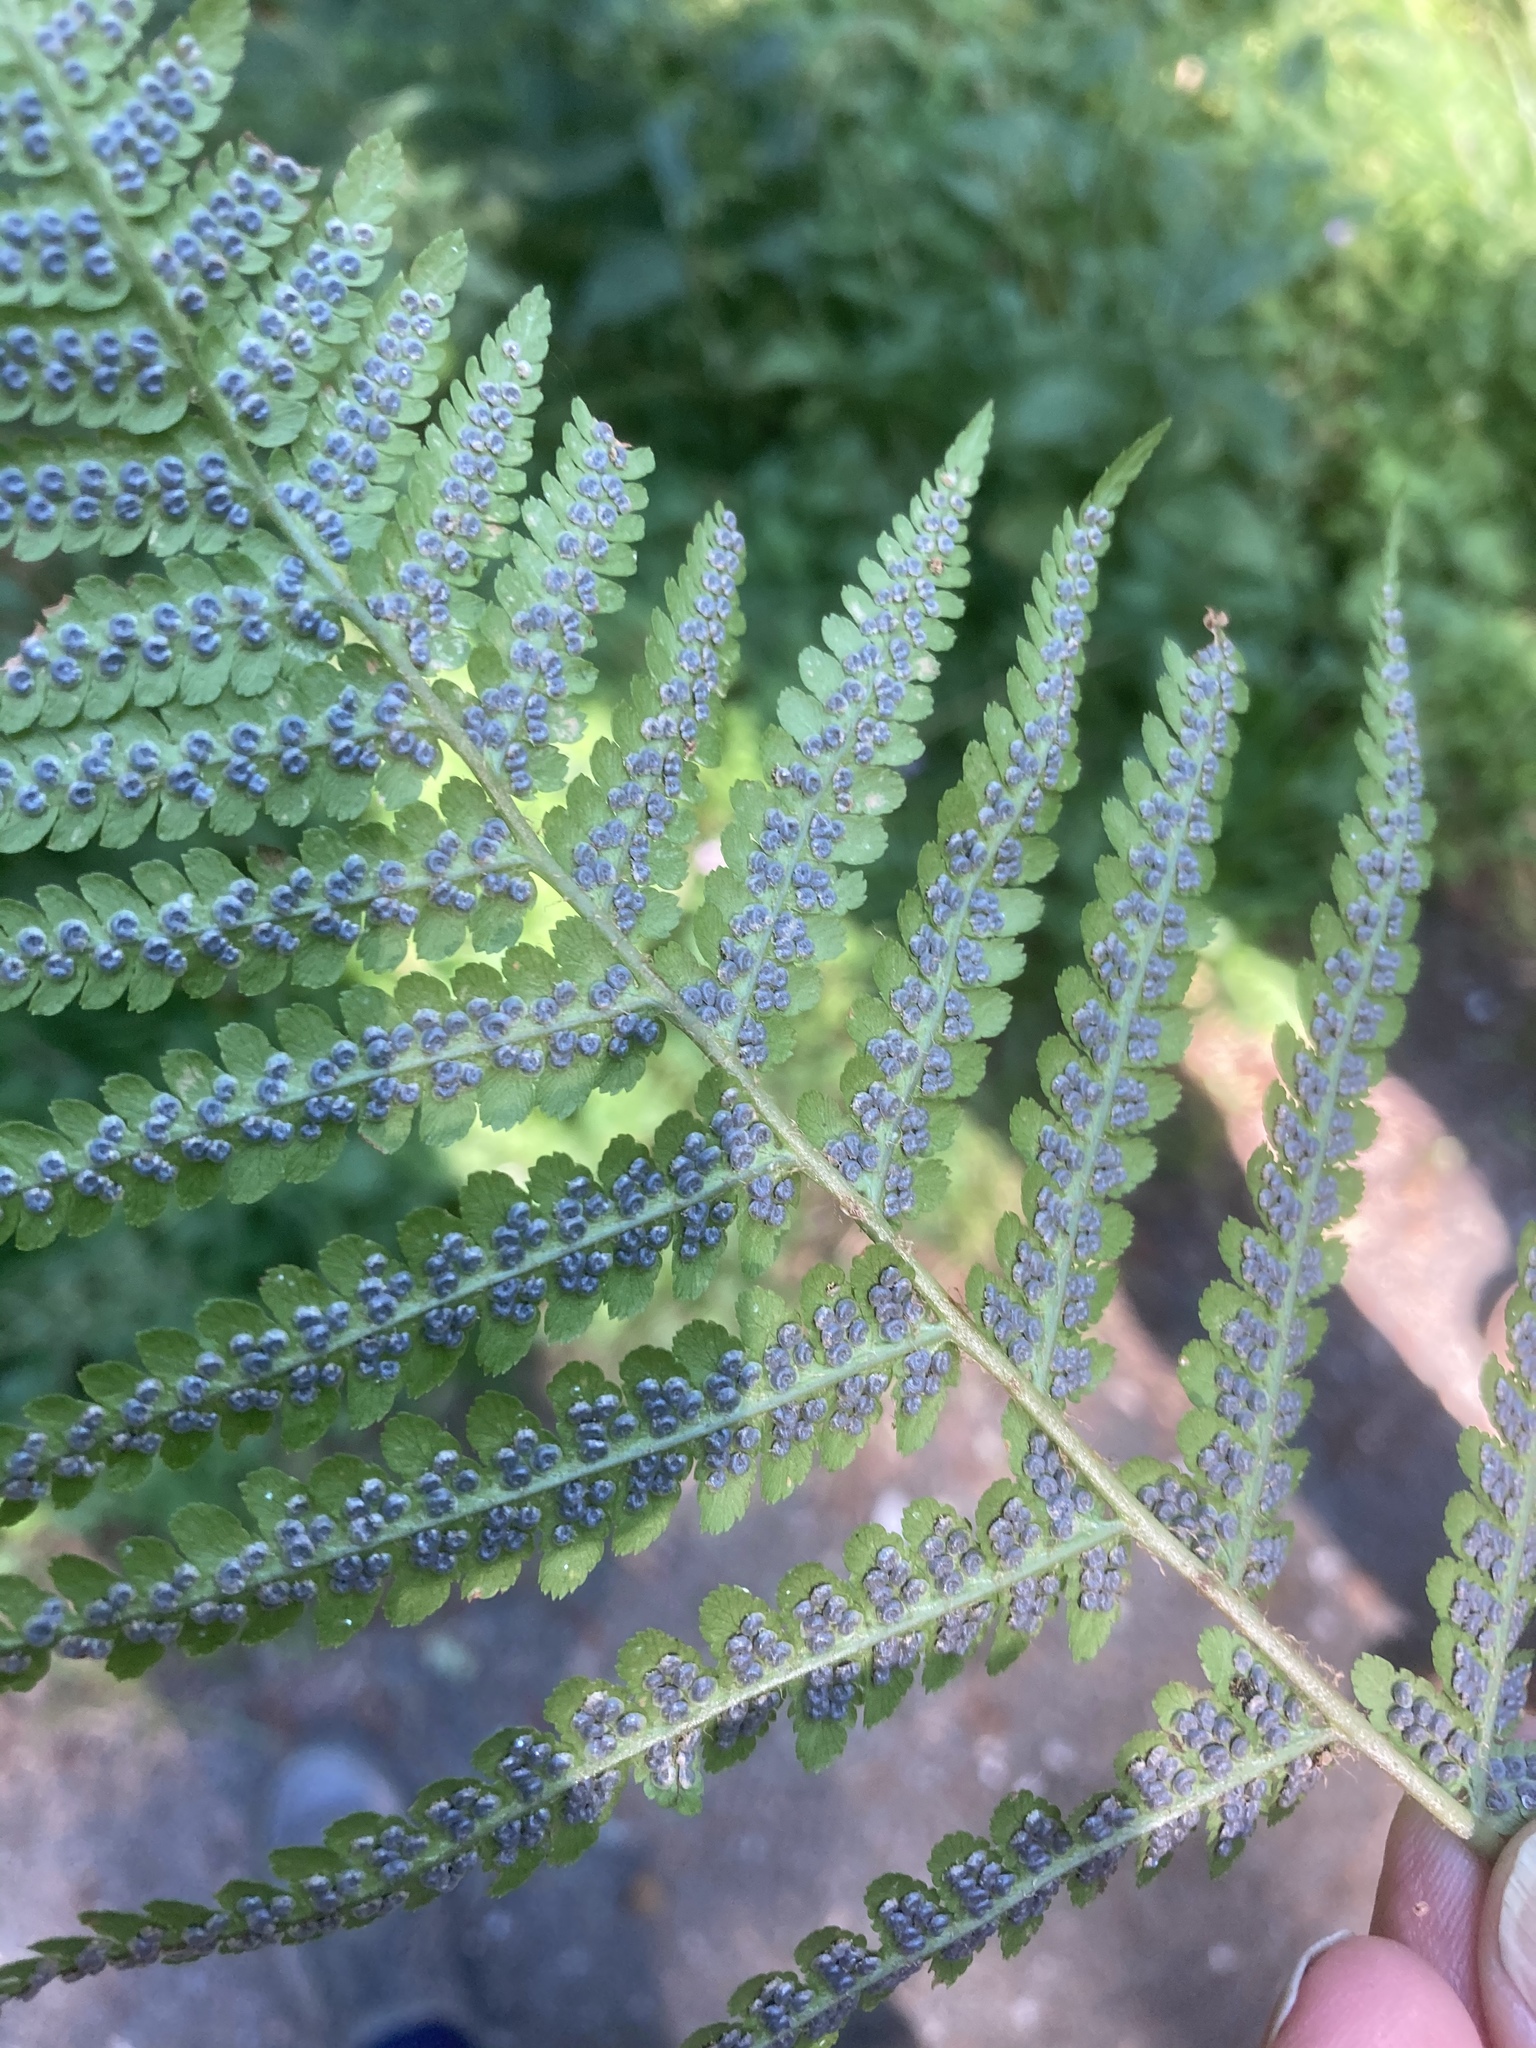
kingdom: Plantae
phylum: Tracheophyta
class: Polypodiopsida
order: Polypodiales
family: Dryopteridaceae
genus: Dryopteris
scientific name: Dryopteris filix-mas
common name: Male fern
